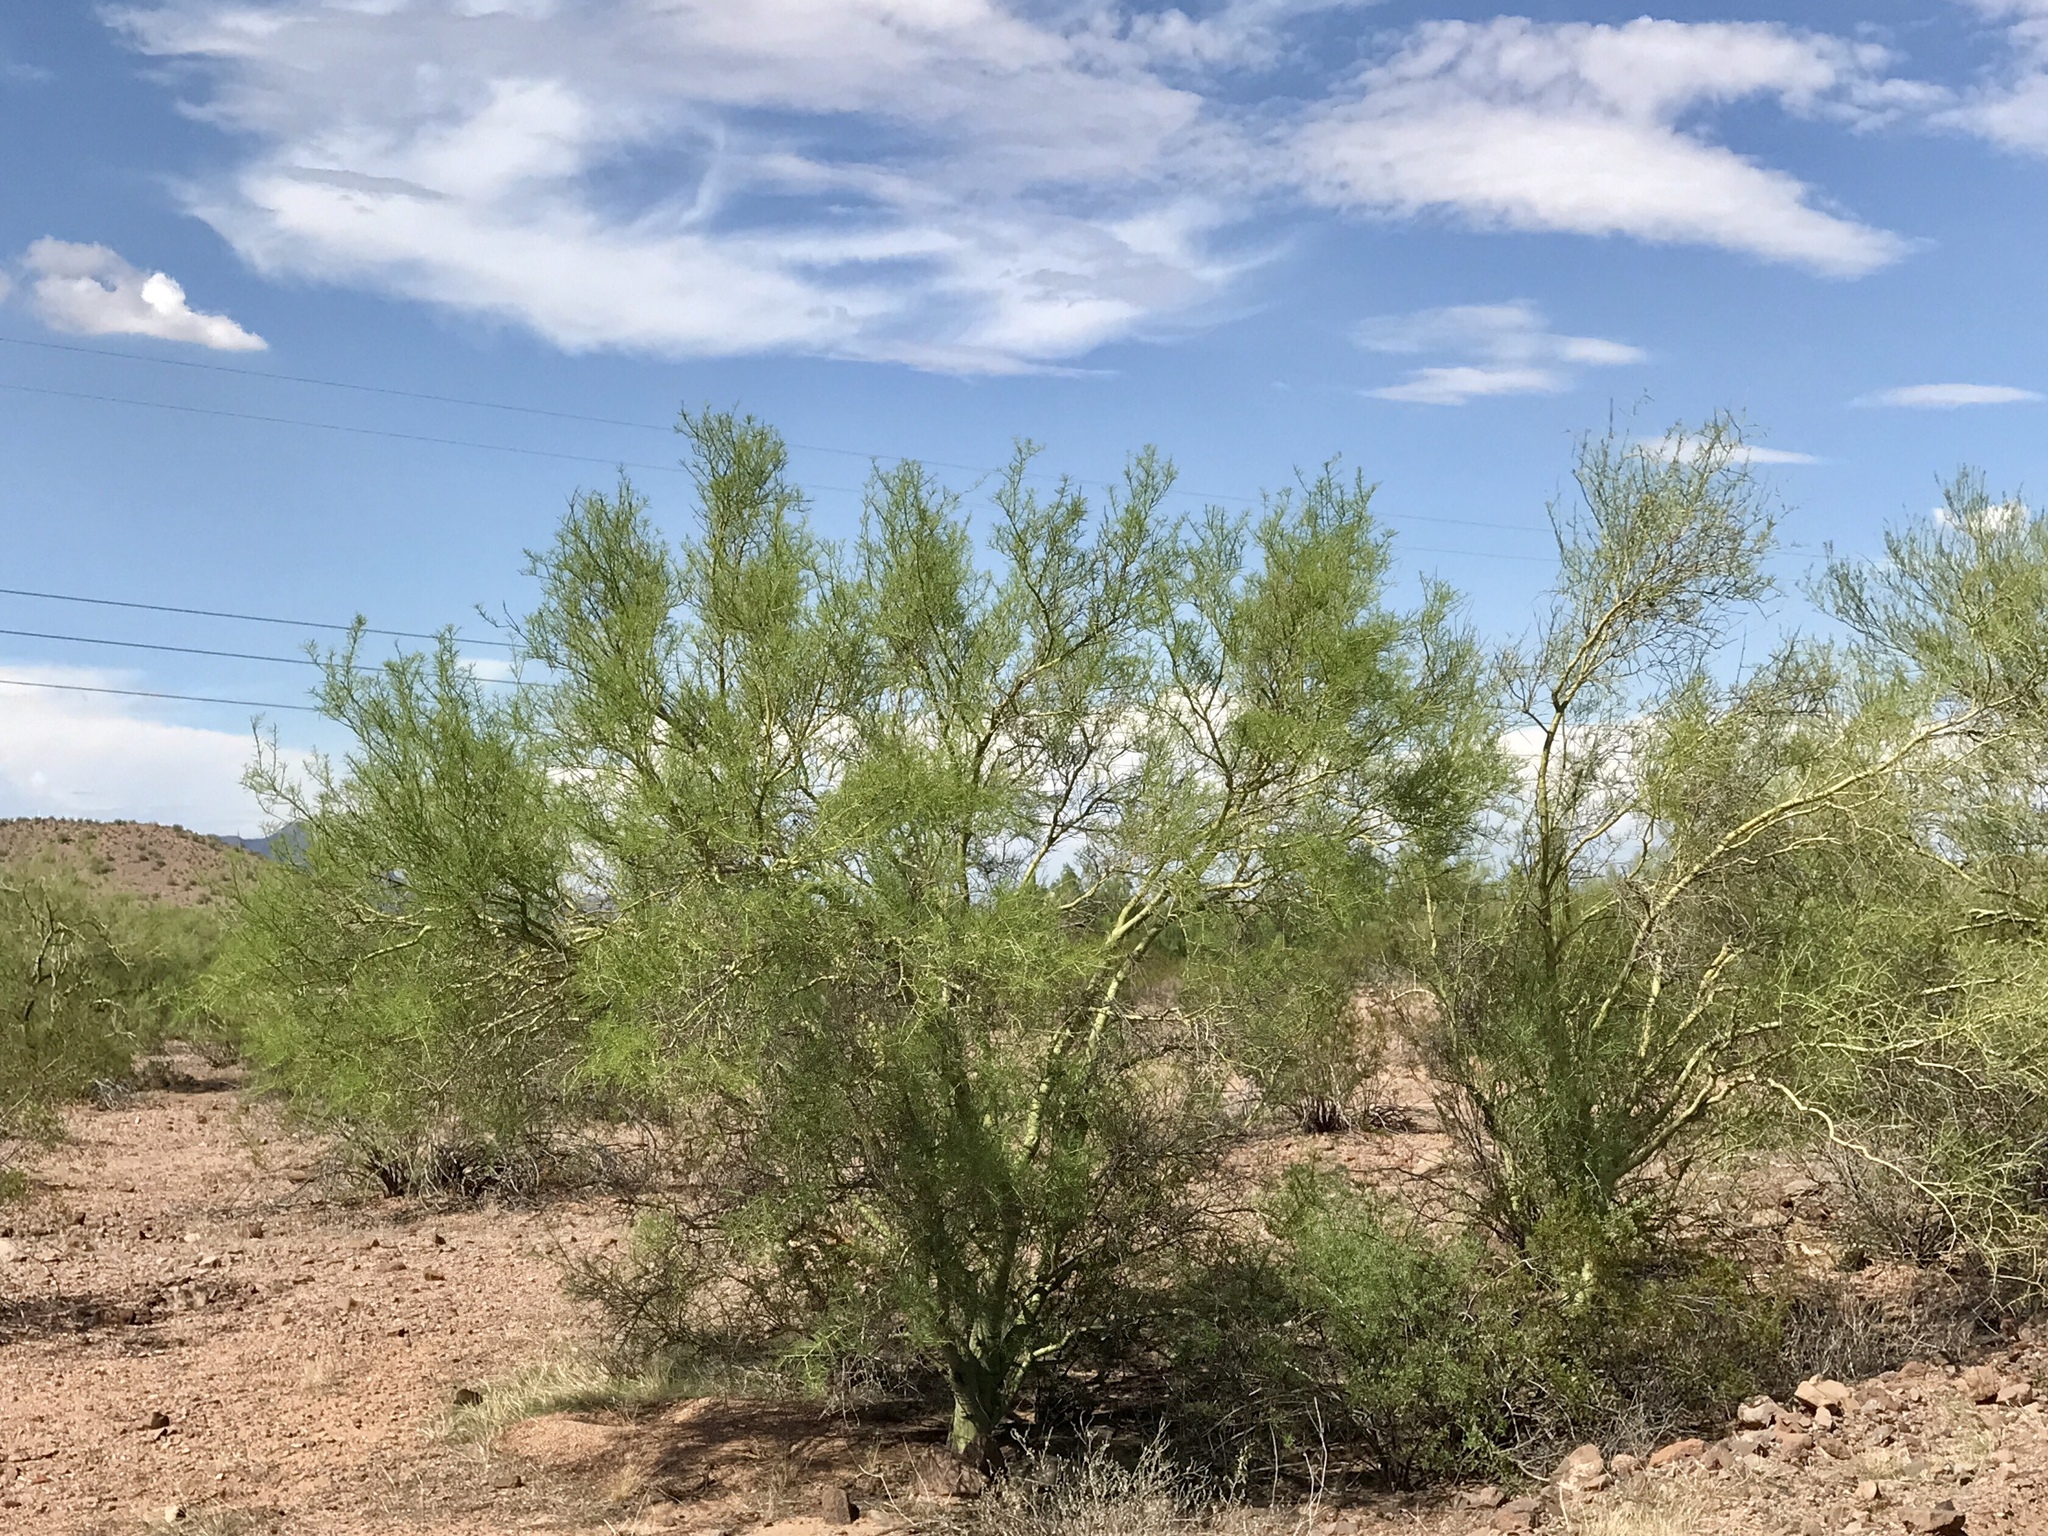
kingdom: Plantae
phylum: Tracheophyta
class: Magnoliopsida
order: Fabales
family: Fabaceae
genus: Parkinsonia
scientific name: Parkinsonia microphylla
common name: Yellow paloverde
